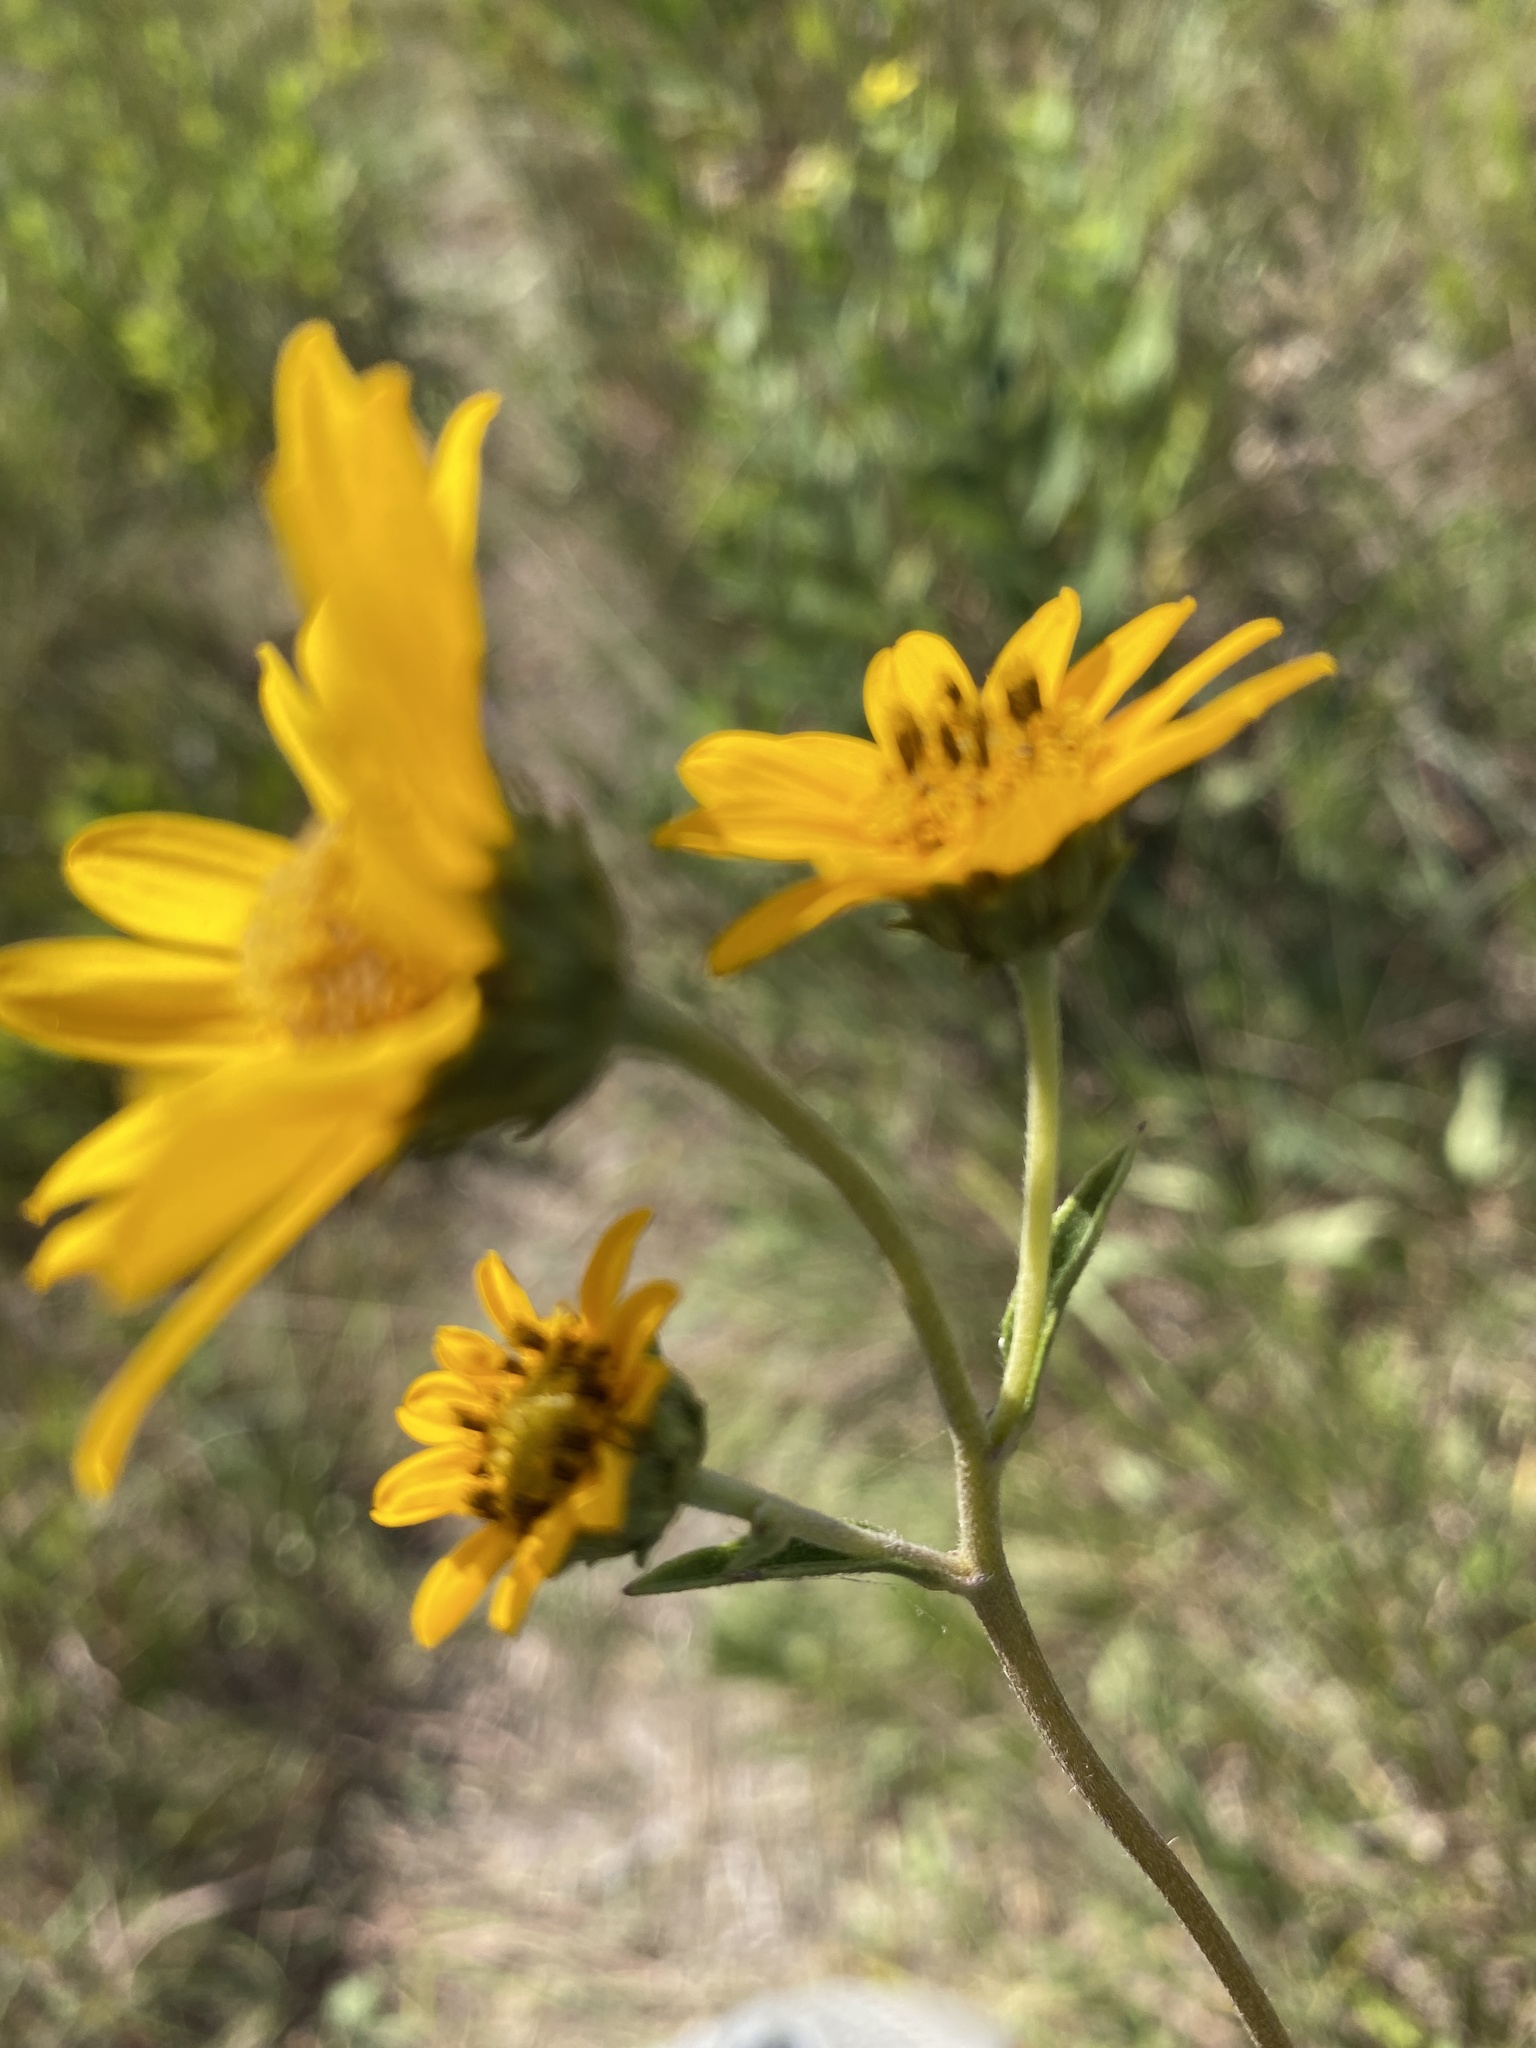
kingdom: Plantae
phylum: Tracheophyta
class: Magnoliopsida
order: Asterales
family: Asteraceae
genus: Helianthus
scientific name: Helianthus occidentalis
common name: Western sunflower
